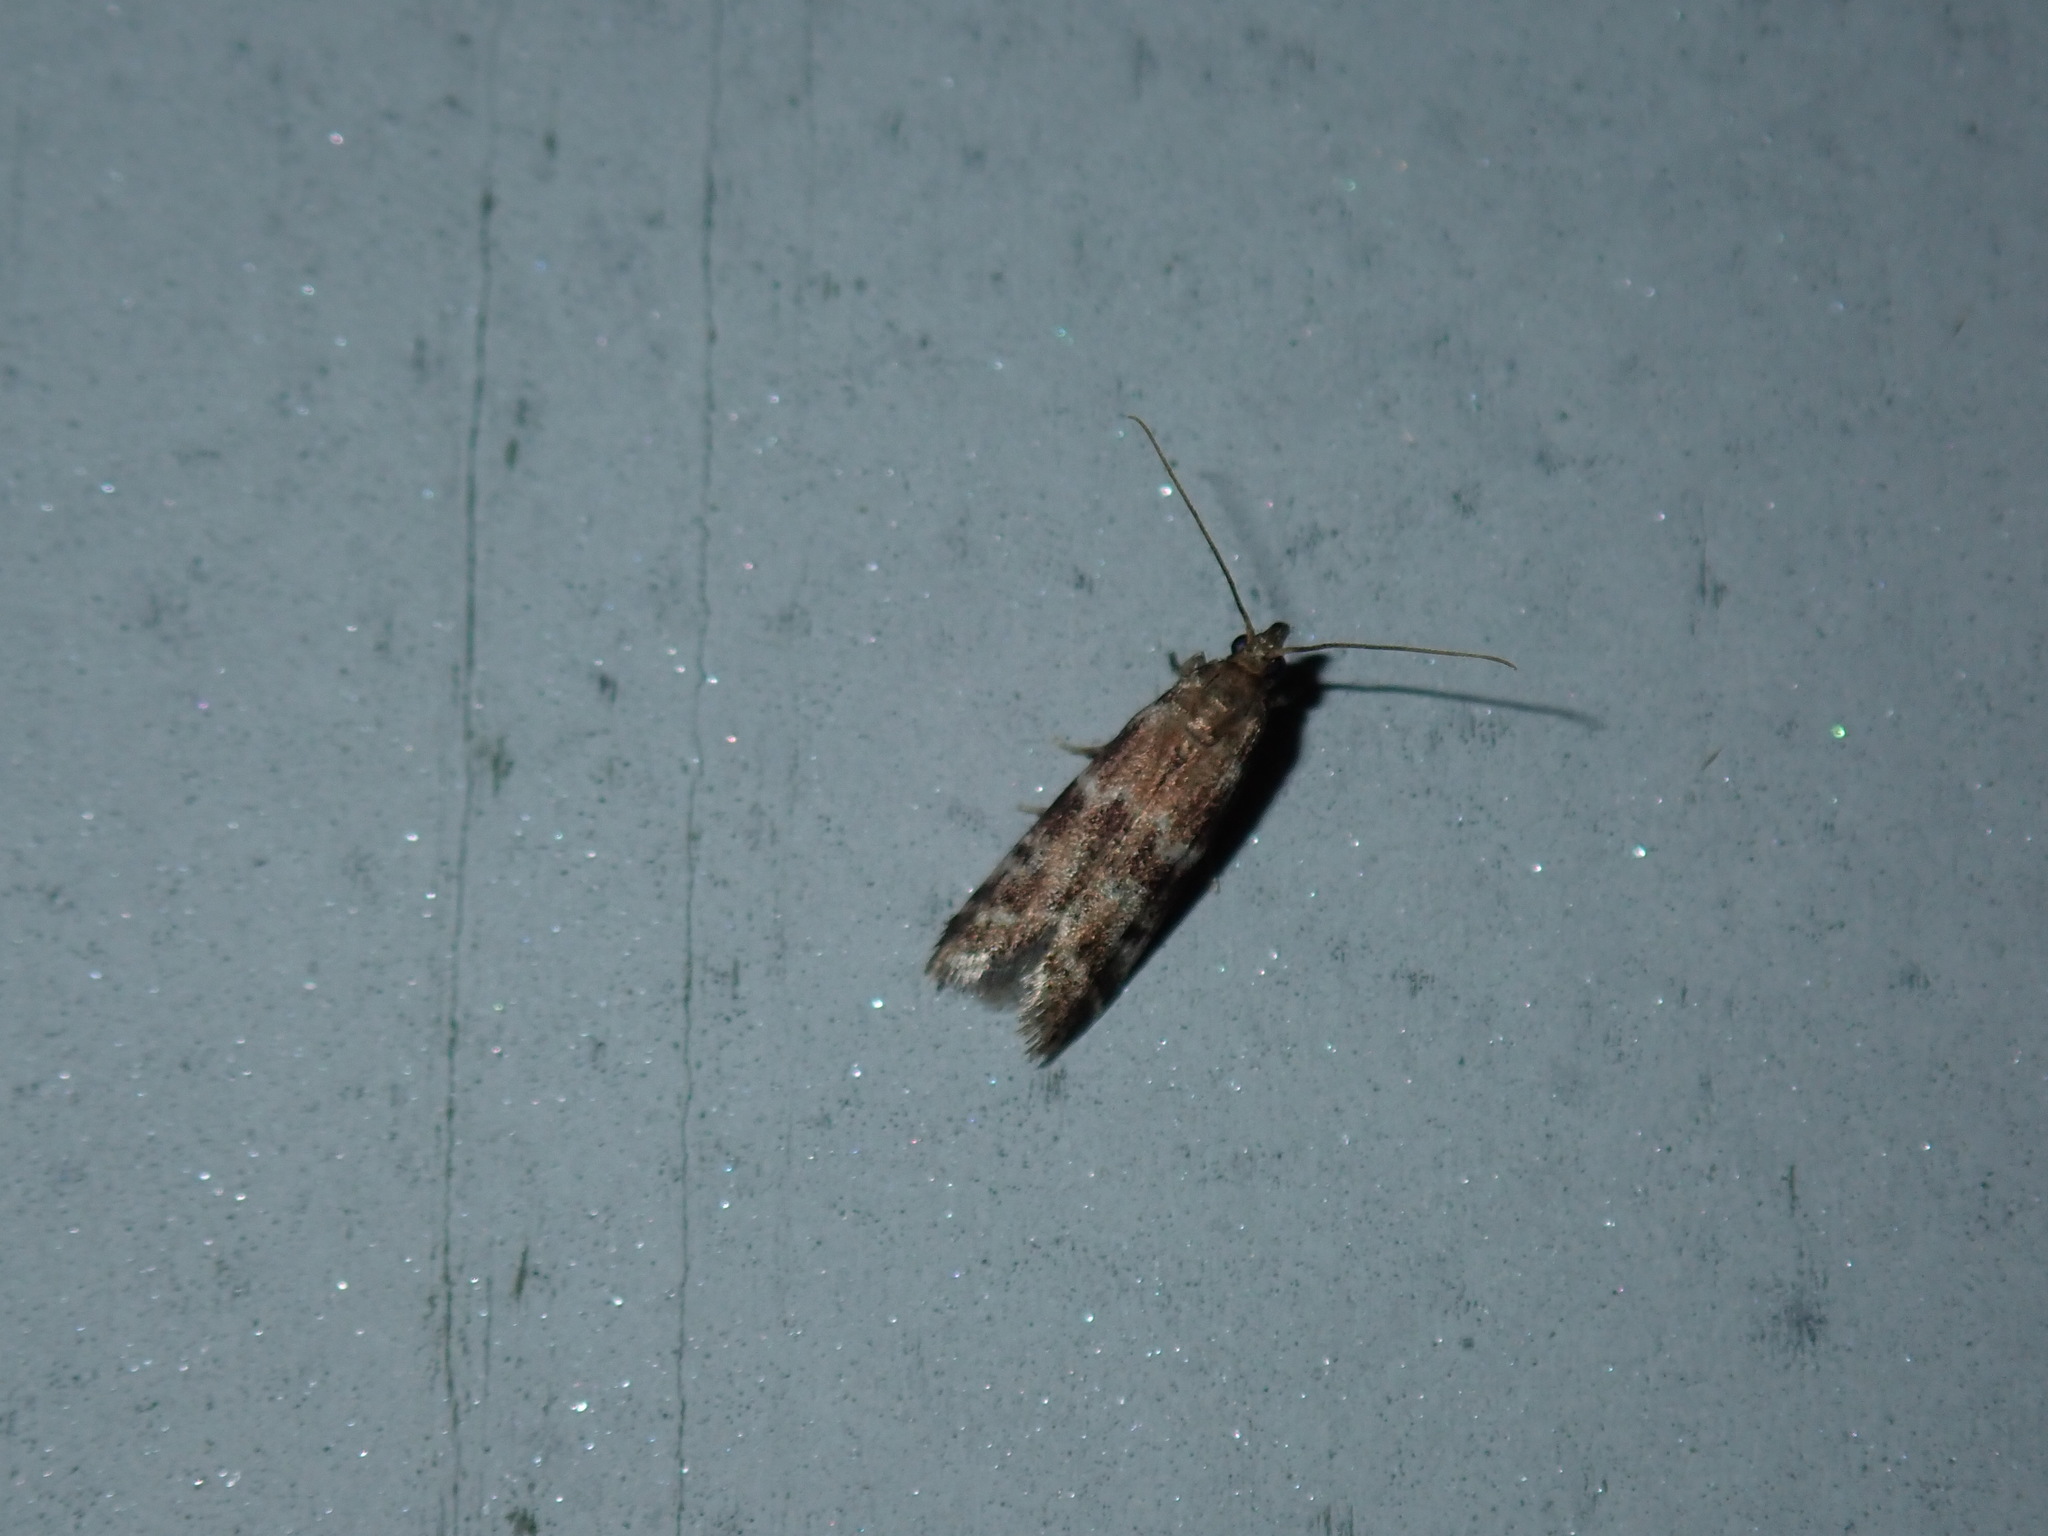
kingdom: Animalia
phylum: Arthropoda
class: Insecta
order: Lepidoptera
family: Pyralidae
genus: Vitula
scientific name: Vitula broweri
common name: Brower's vitula moth
